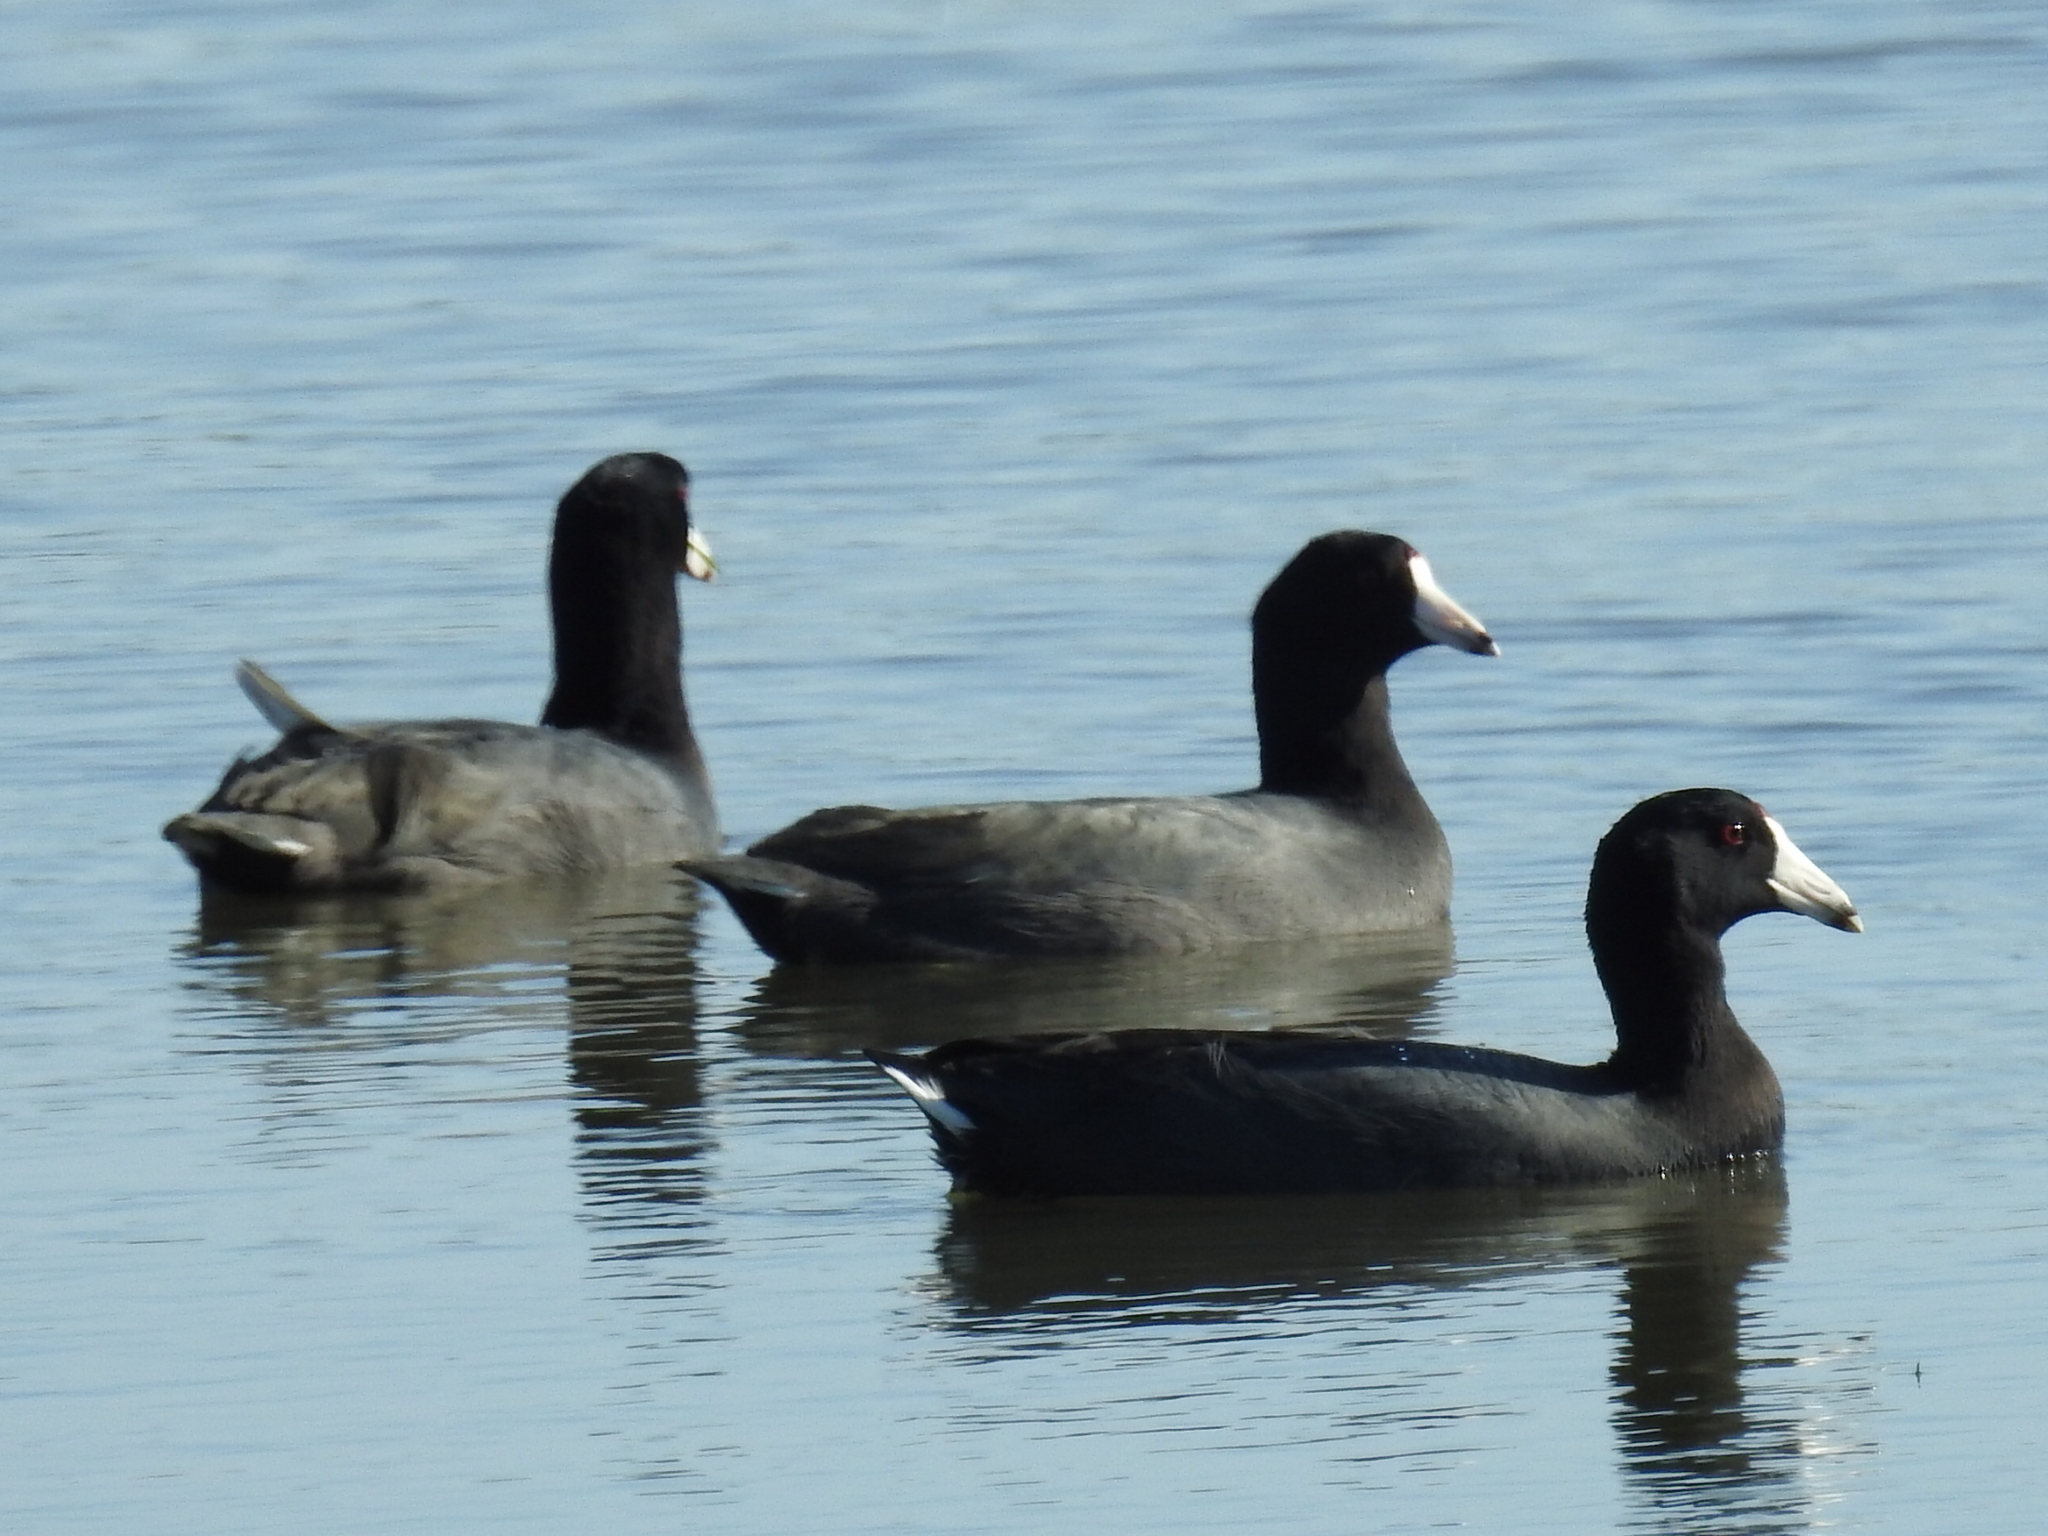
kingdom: Animalia
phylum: Chordata
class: Aves
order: Gruiformes
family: Rallidae
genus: Fulica
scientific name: Fulica americana
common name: American coot
